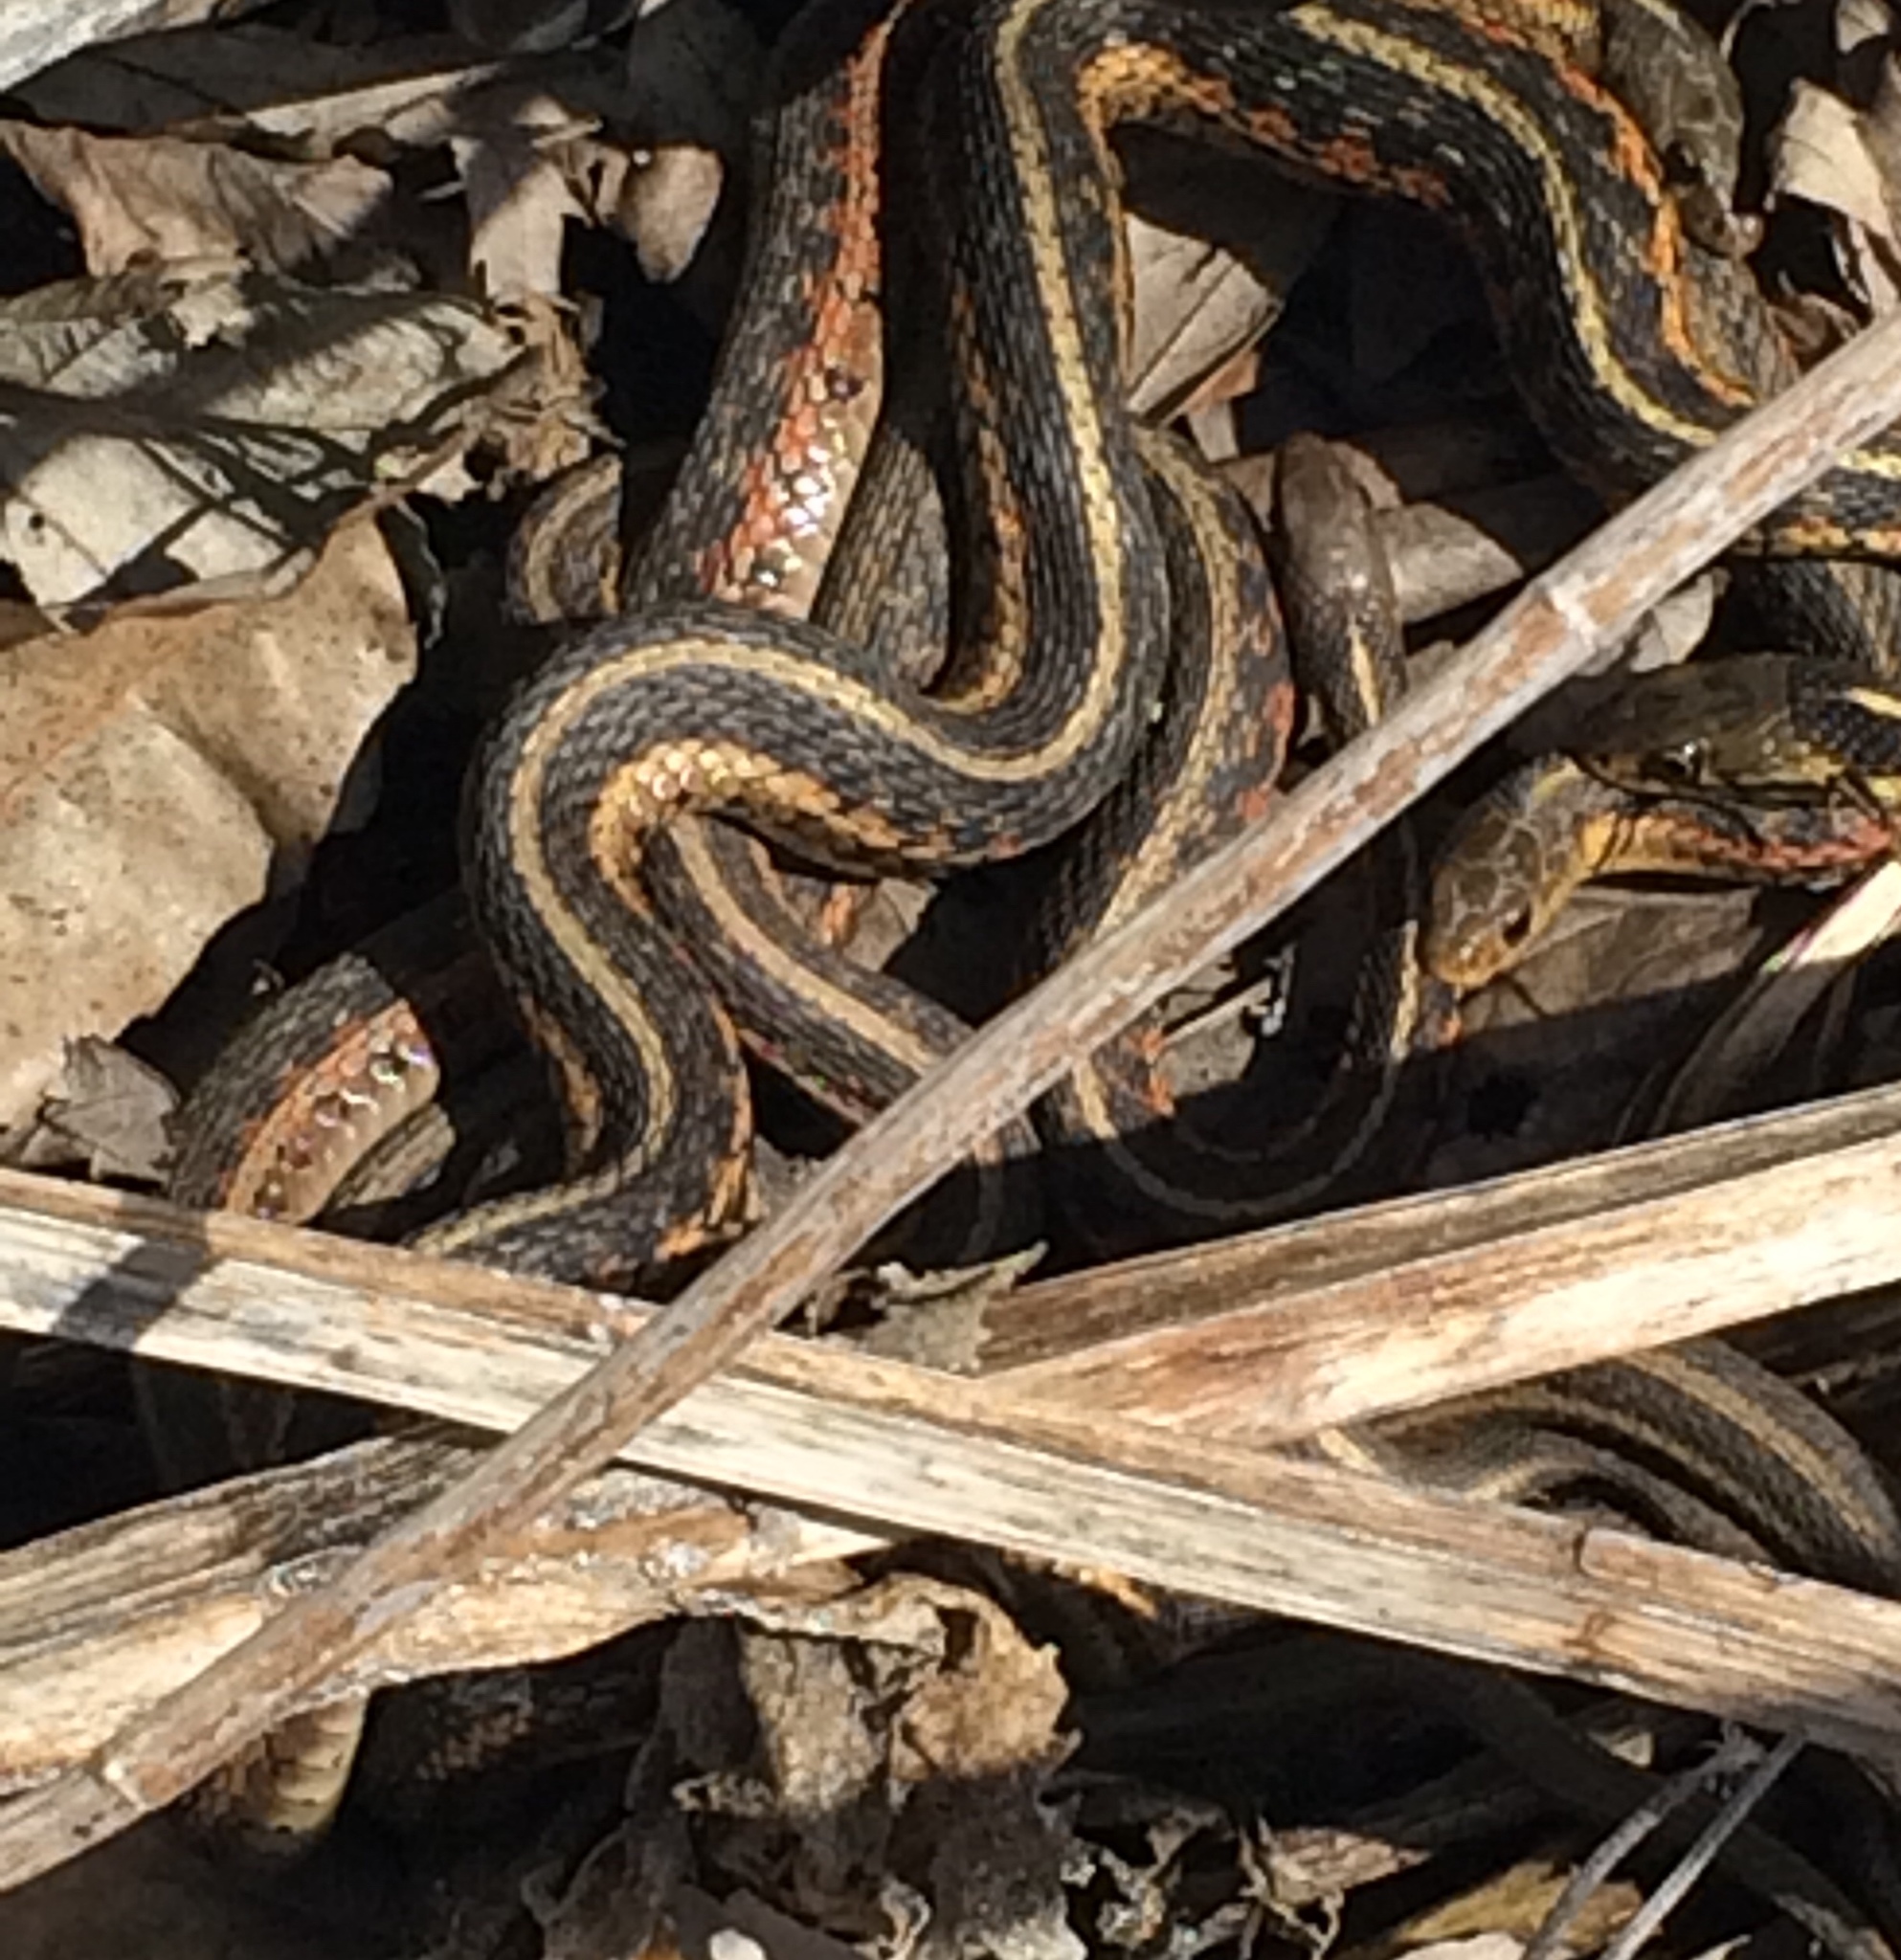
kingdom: Animalia
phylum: Chordata
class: Squamata
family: Colubridae
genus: Thamnophis
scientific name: Thamnophis sirtalis
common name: Common garter snake
